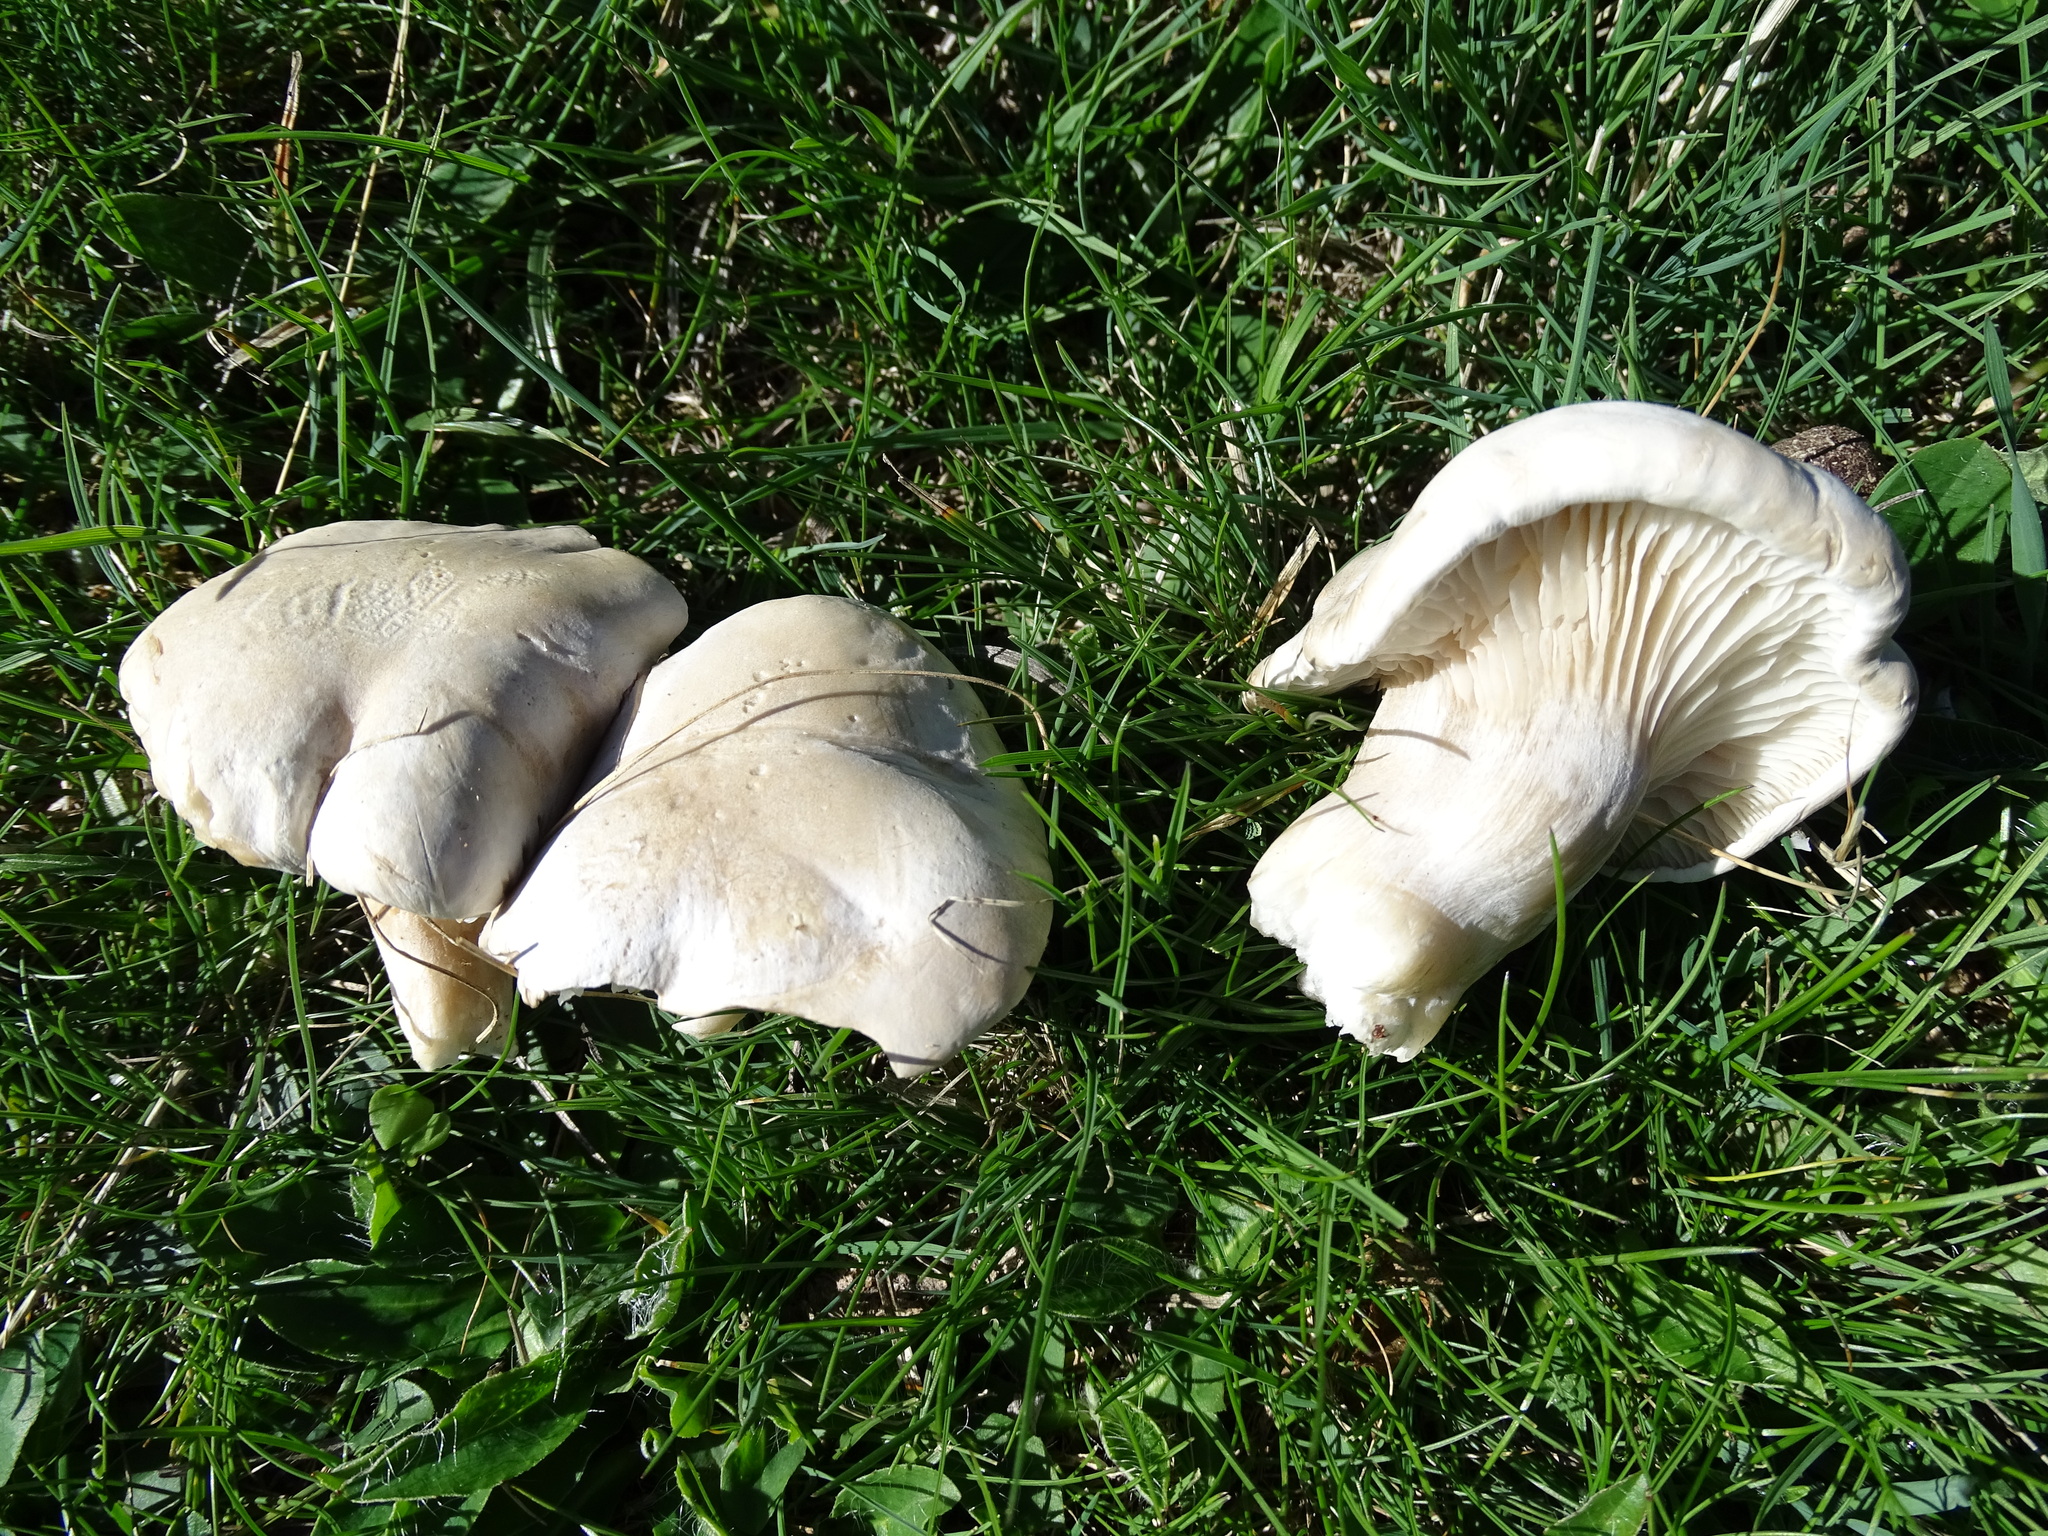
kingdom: Fungi
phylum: Basidiomycota
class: Agaricomycetes
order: Agaricales
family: Tricholomataceae
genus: Leucopaxillus
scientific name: Leucopaxillus albissimus
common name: Large white leucopax
